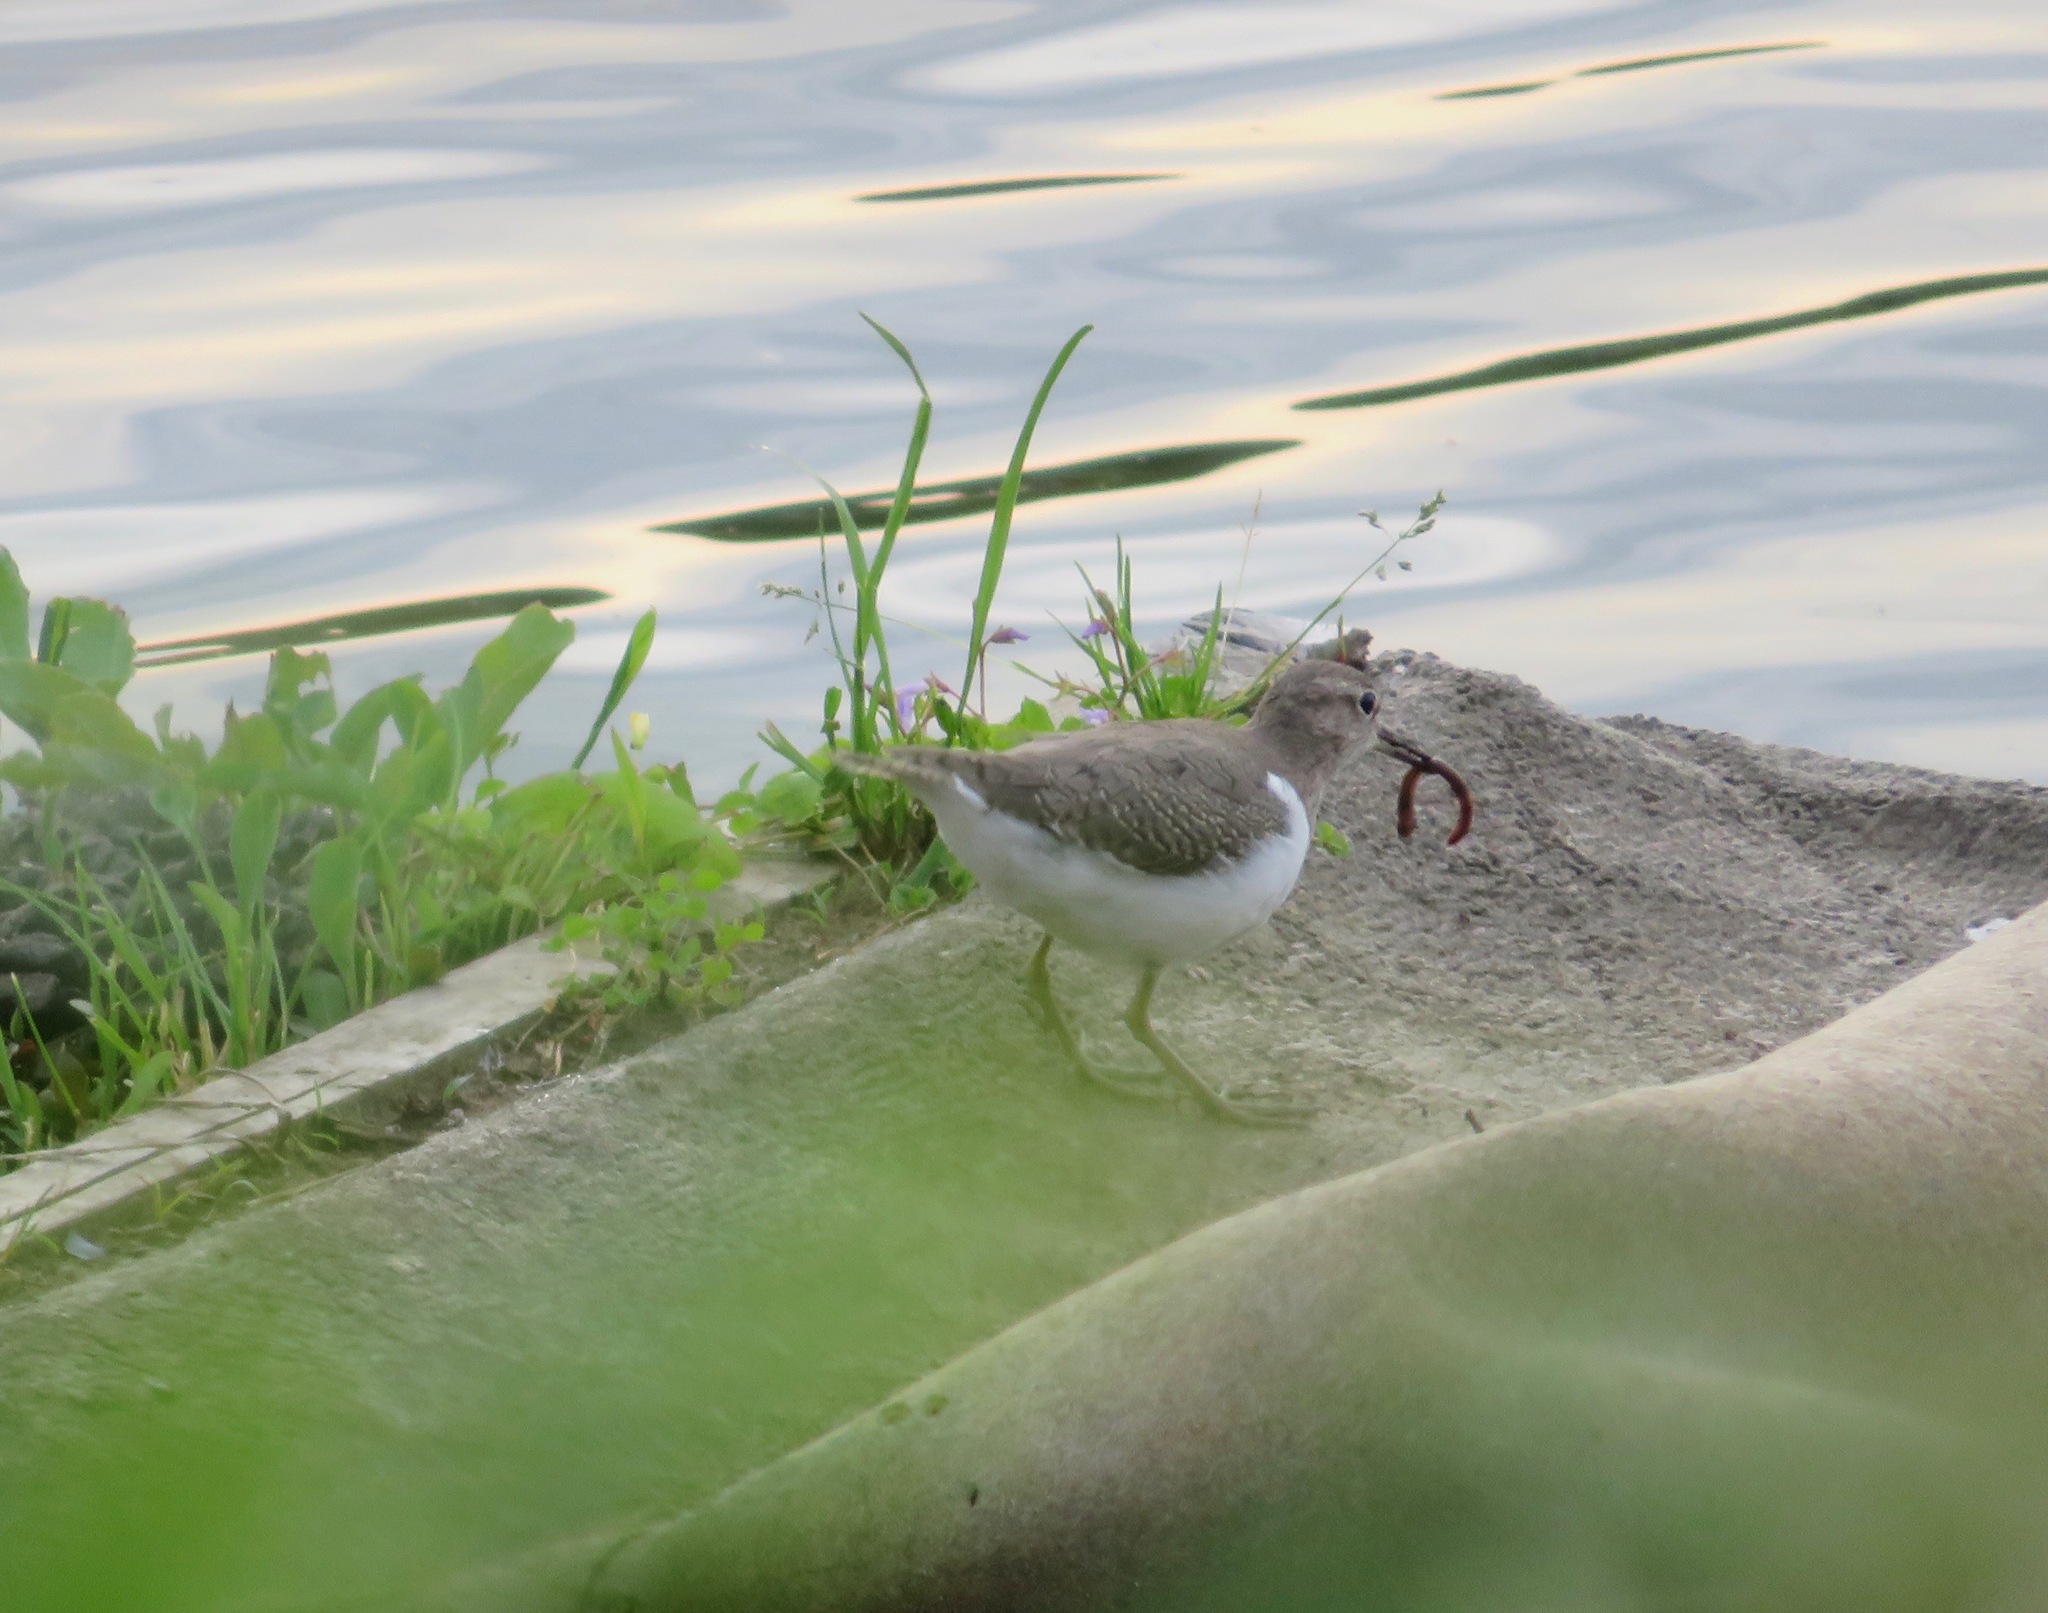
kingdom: Animalia
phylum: Chordata
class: Aves
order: Charadriiformes
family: Scolopacidae
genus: Actitis
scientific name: Actitis hypoleucos
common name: Common sandpiper
